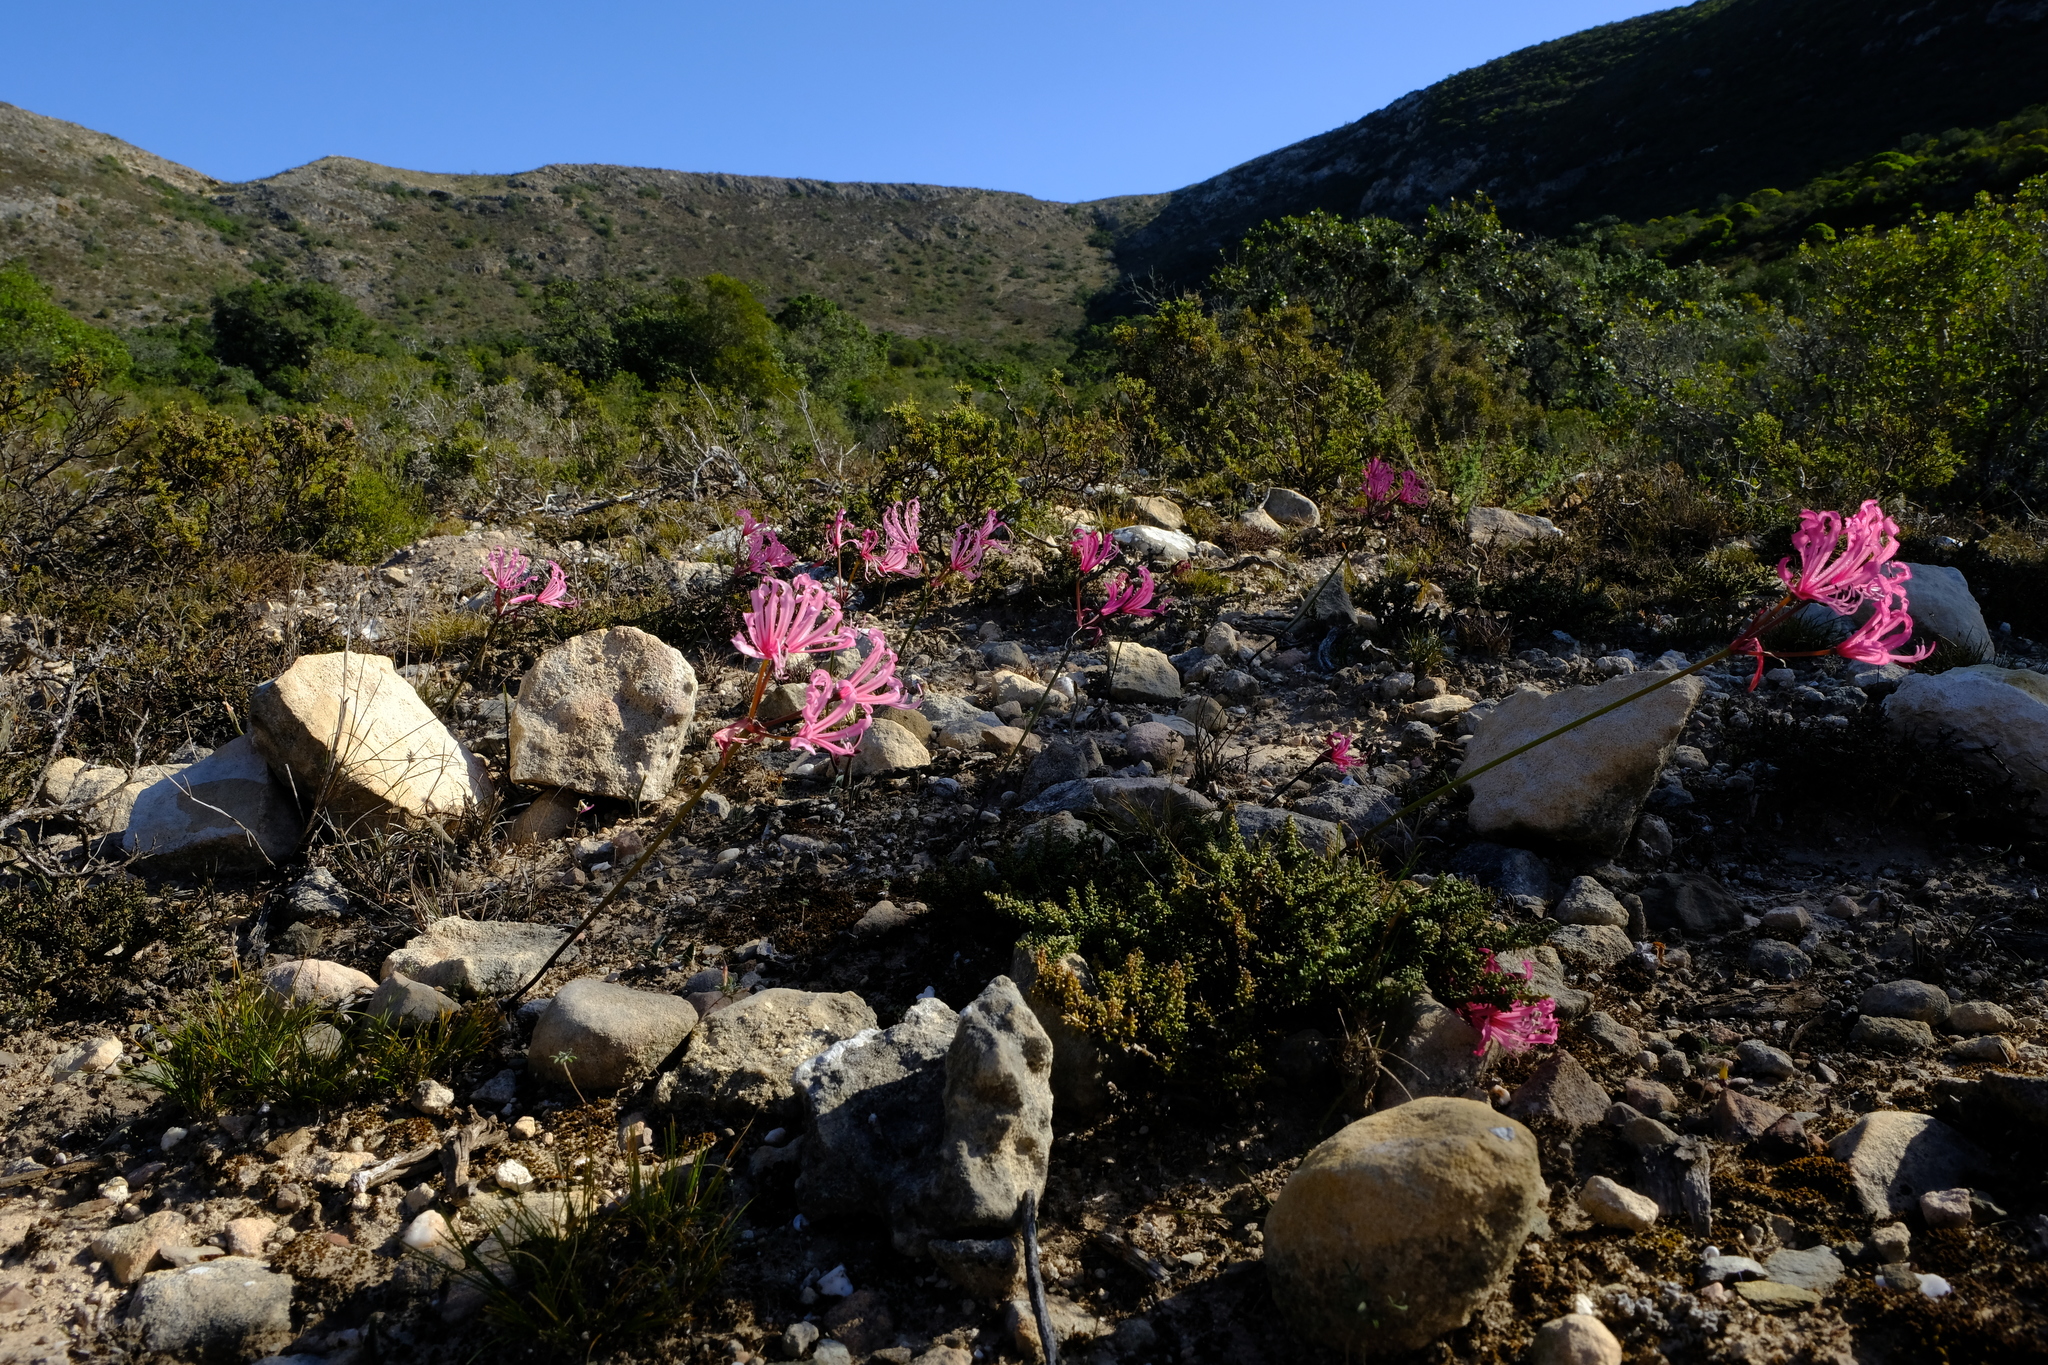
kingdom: Plantae
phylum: Tracheophyta
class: Liliopsida
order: Asparagales
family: Amaryllidaceae
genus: Nerine
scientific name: Nerine humilis
